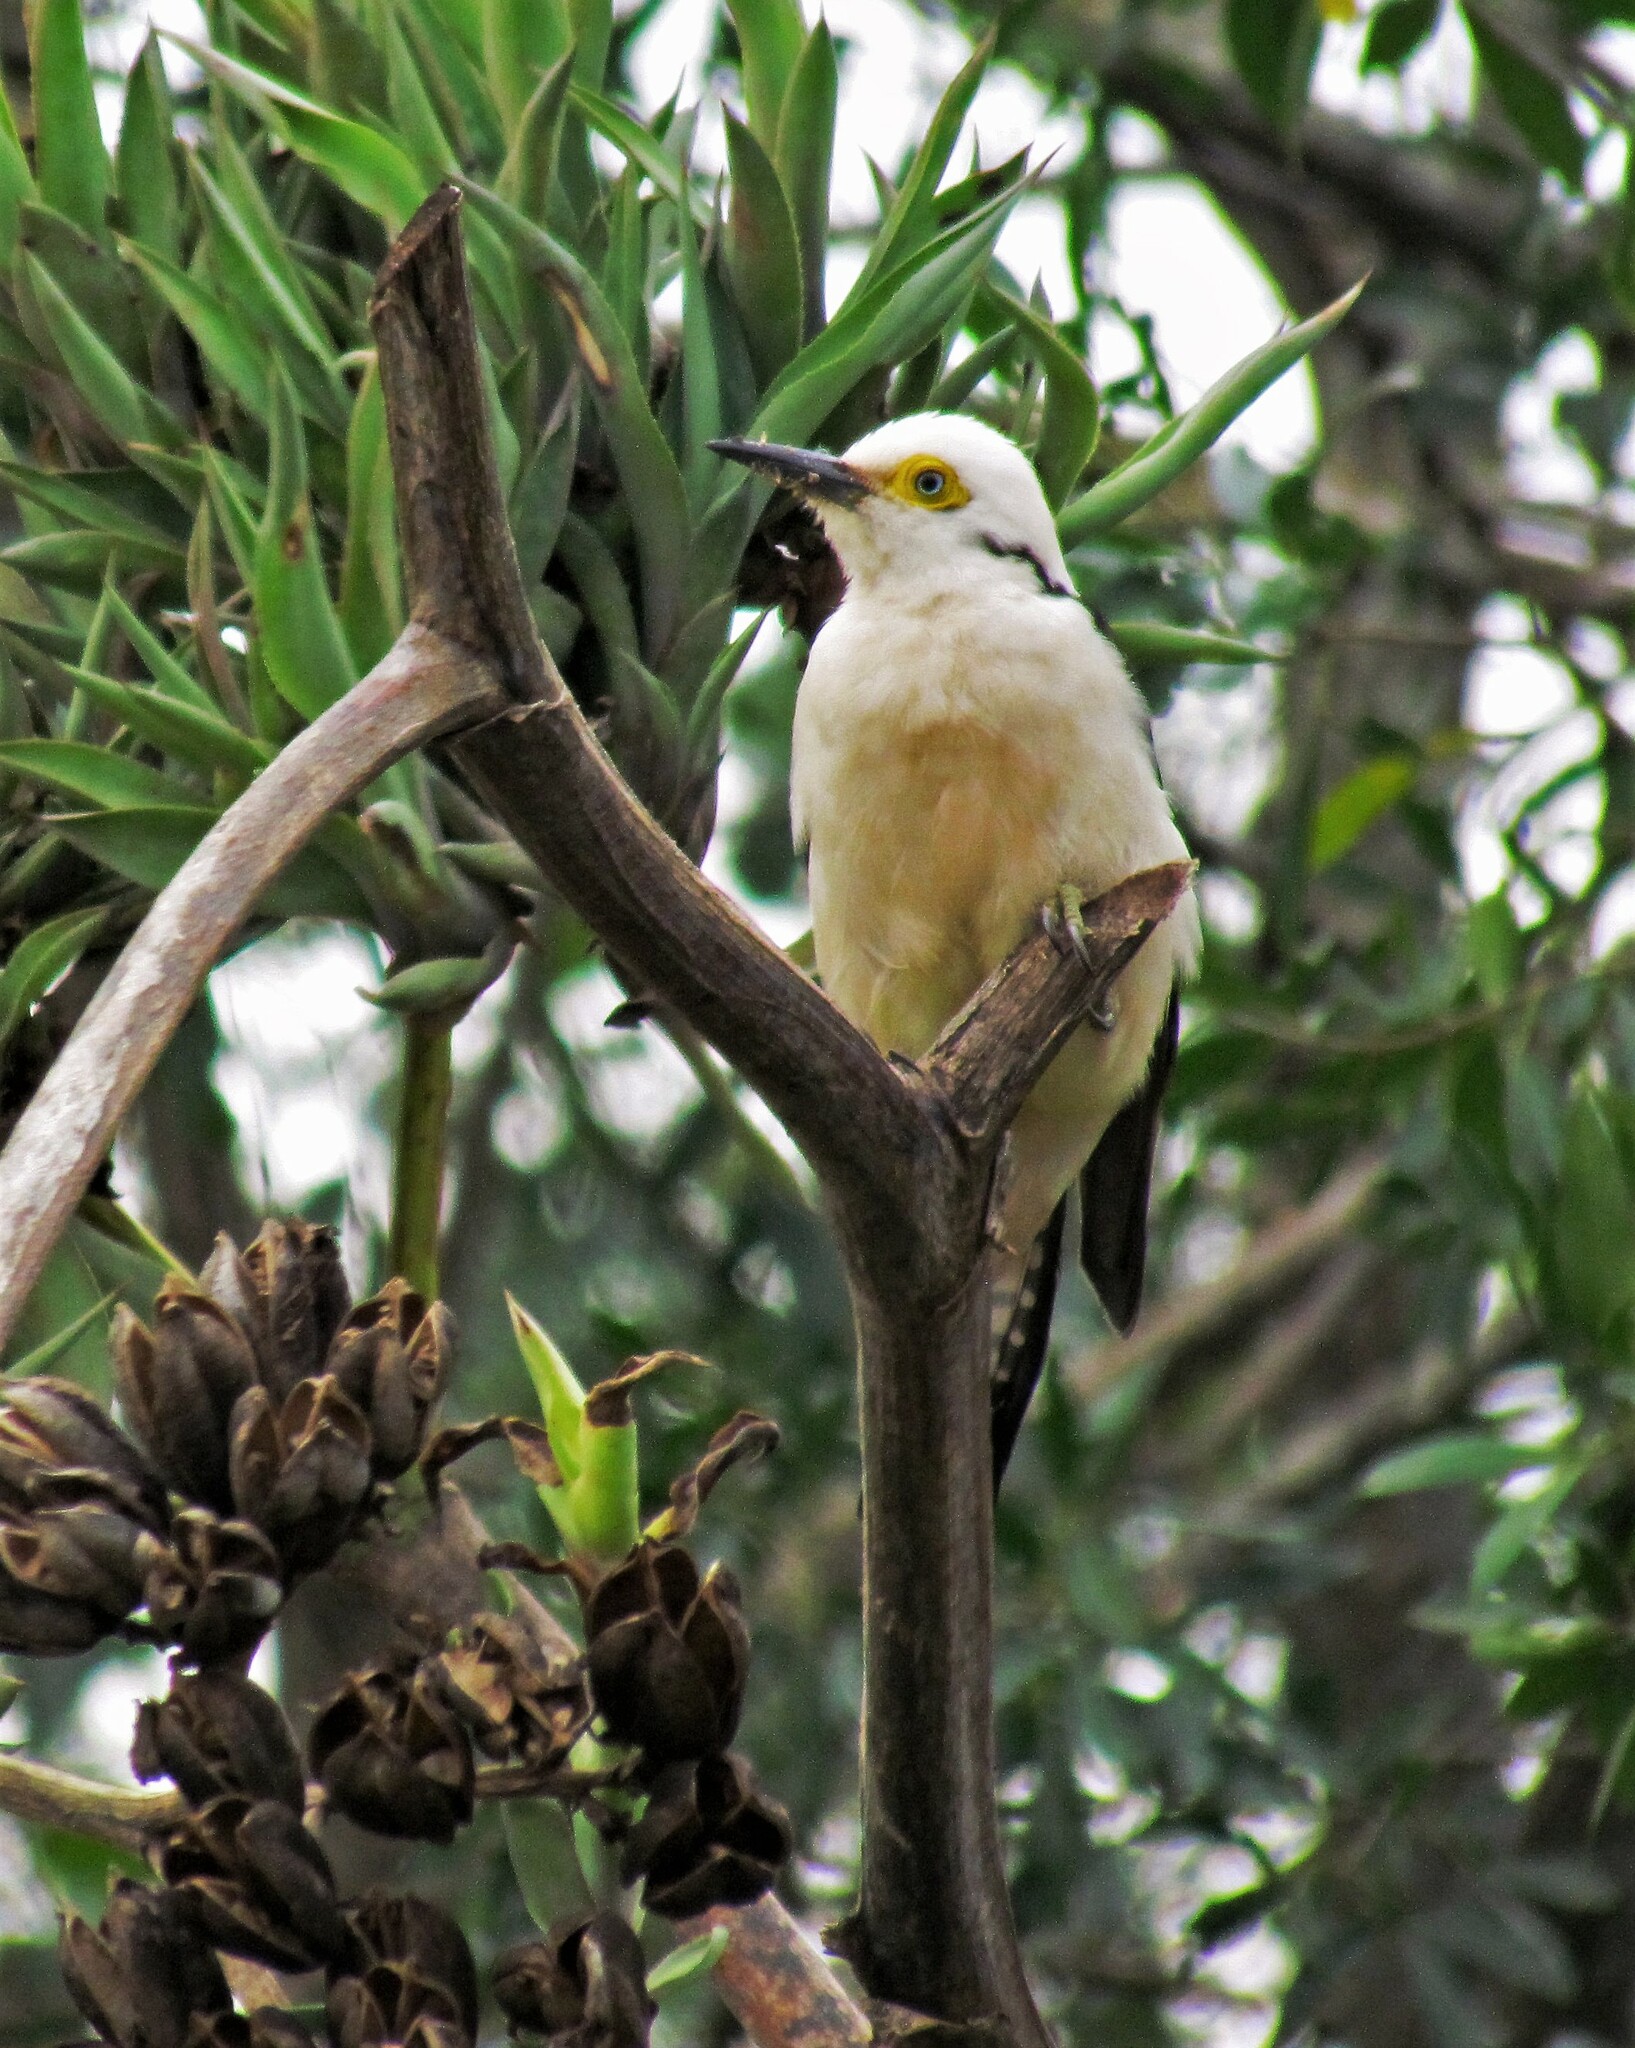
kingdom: Animalia
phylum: Chordata
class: Aves
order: Piciformes
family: Picidae
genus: Melanerpes
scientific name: Melanerpes candidus
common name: White woodpecker
